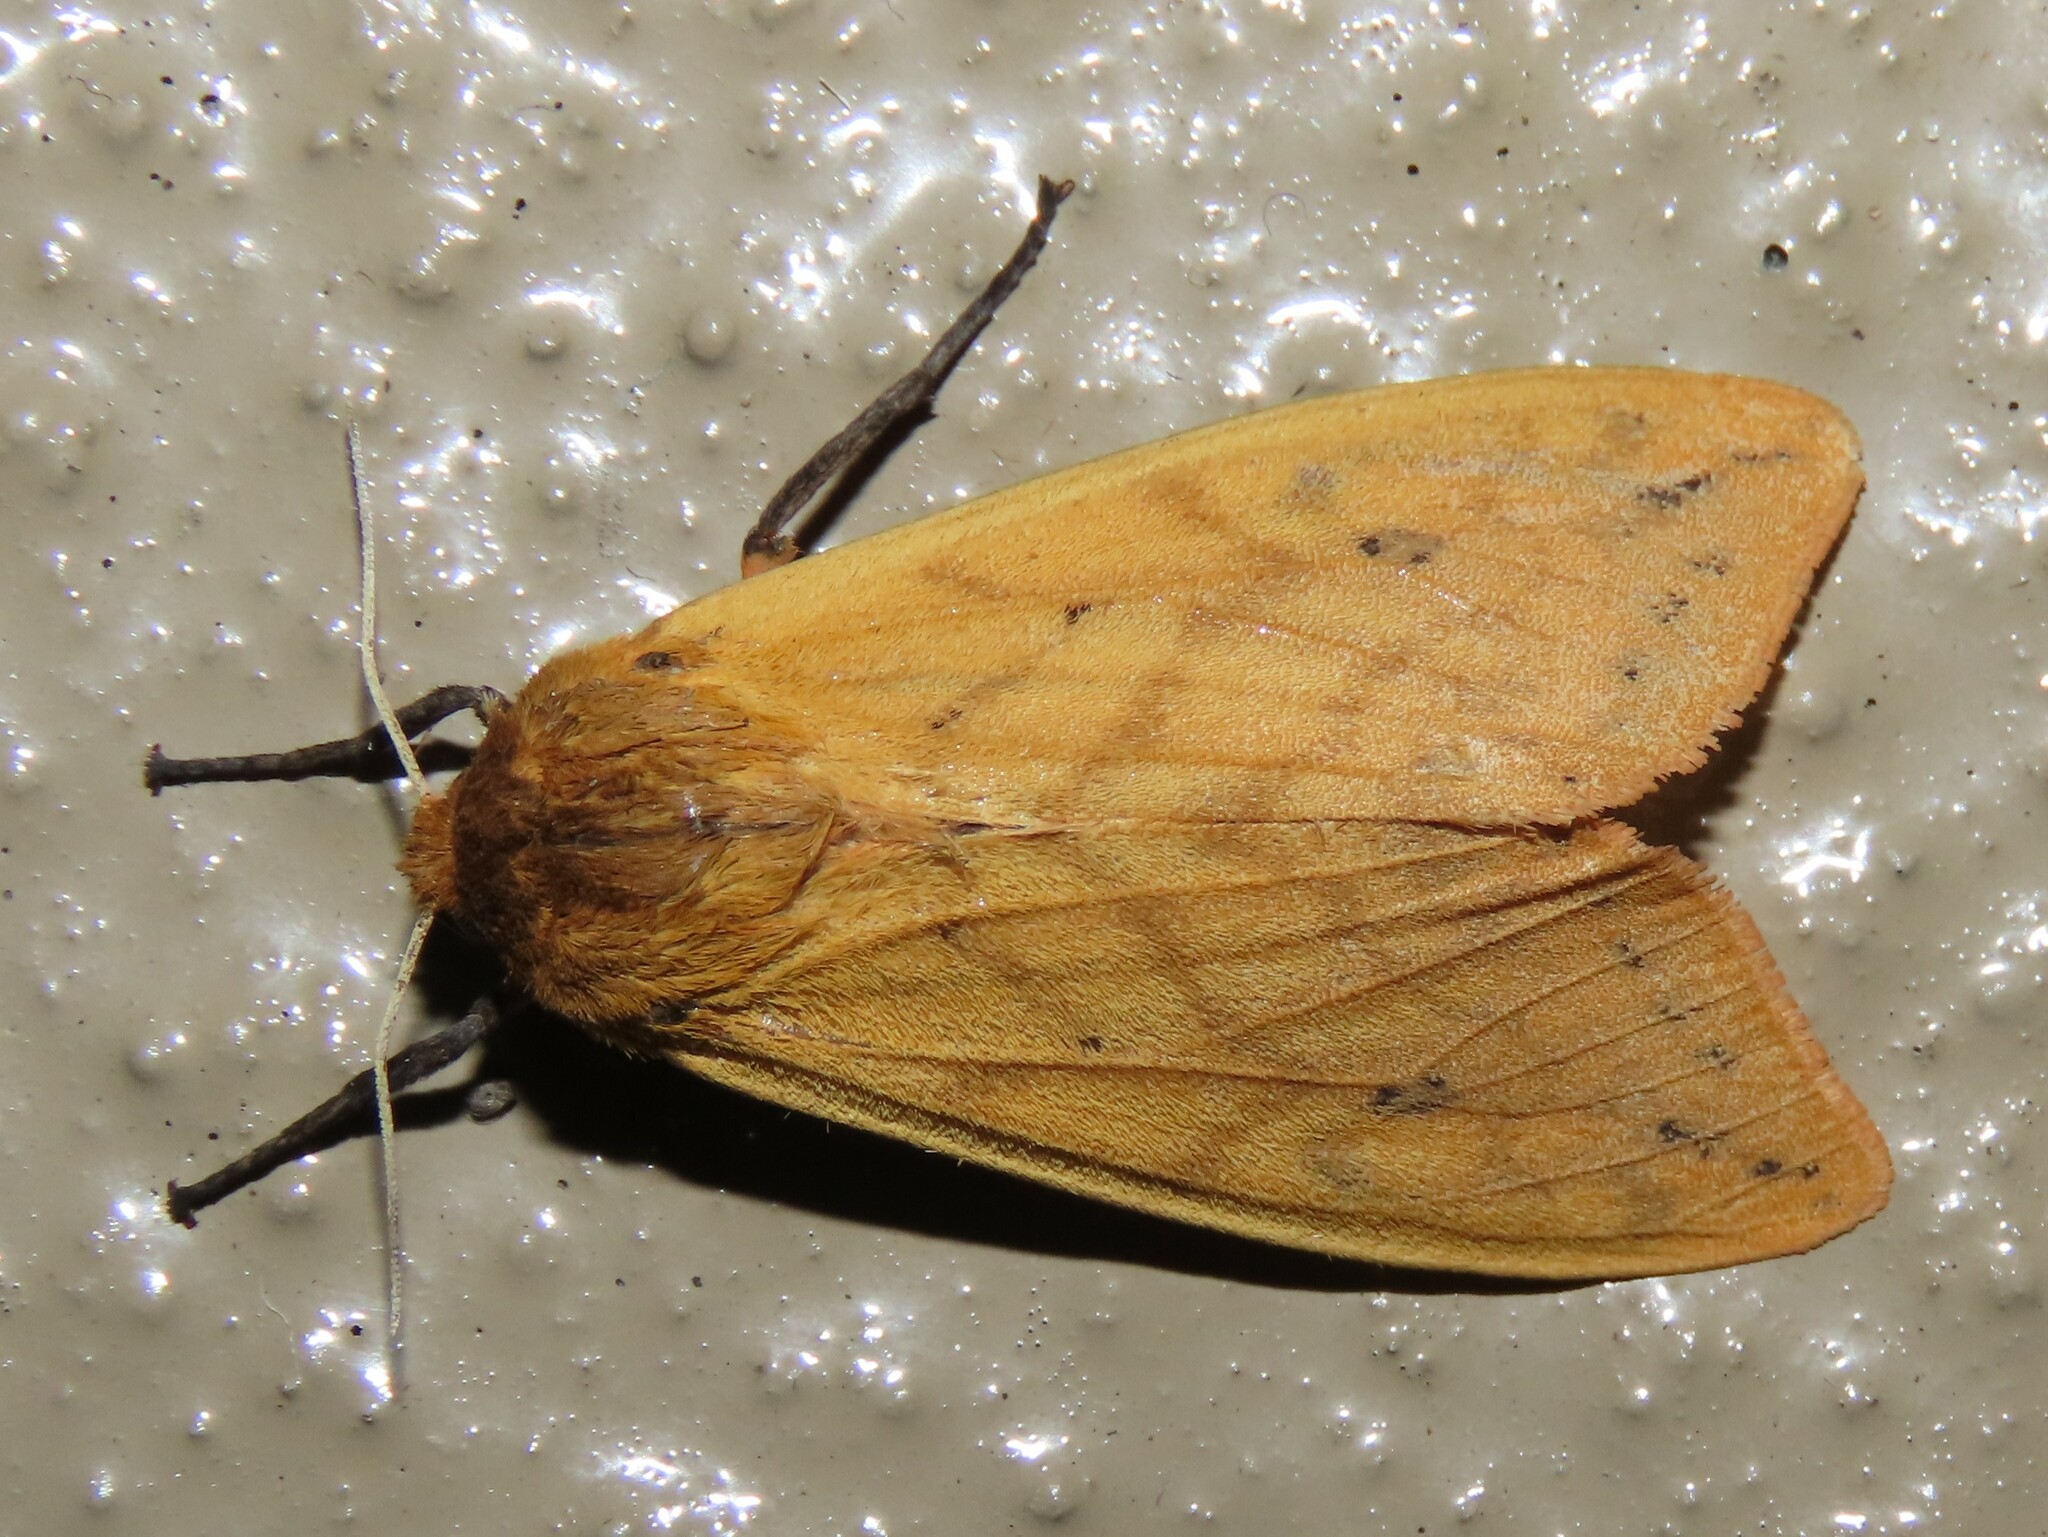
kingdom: Animalia
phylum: Arthropoda
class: Insecta
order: Lepidoptera
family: Erebidae
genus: Pyrrharctia
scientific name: Pyrrharctia isabella
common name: Isabella tiger moth
